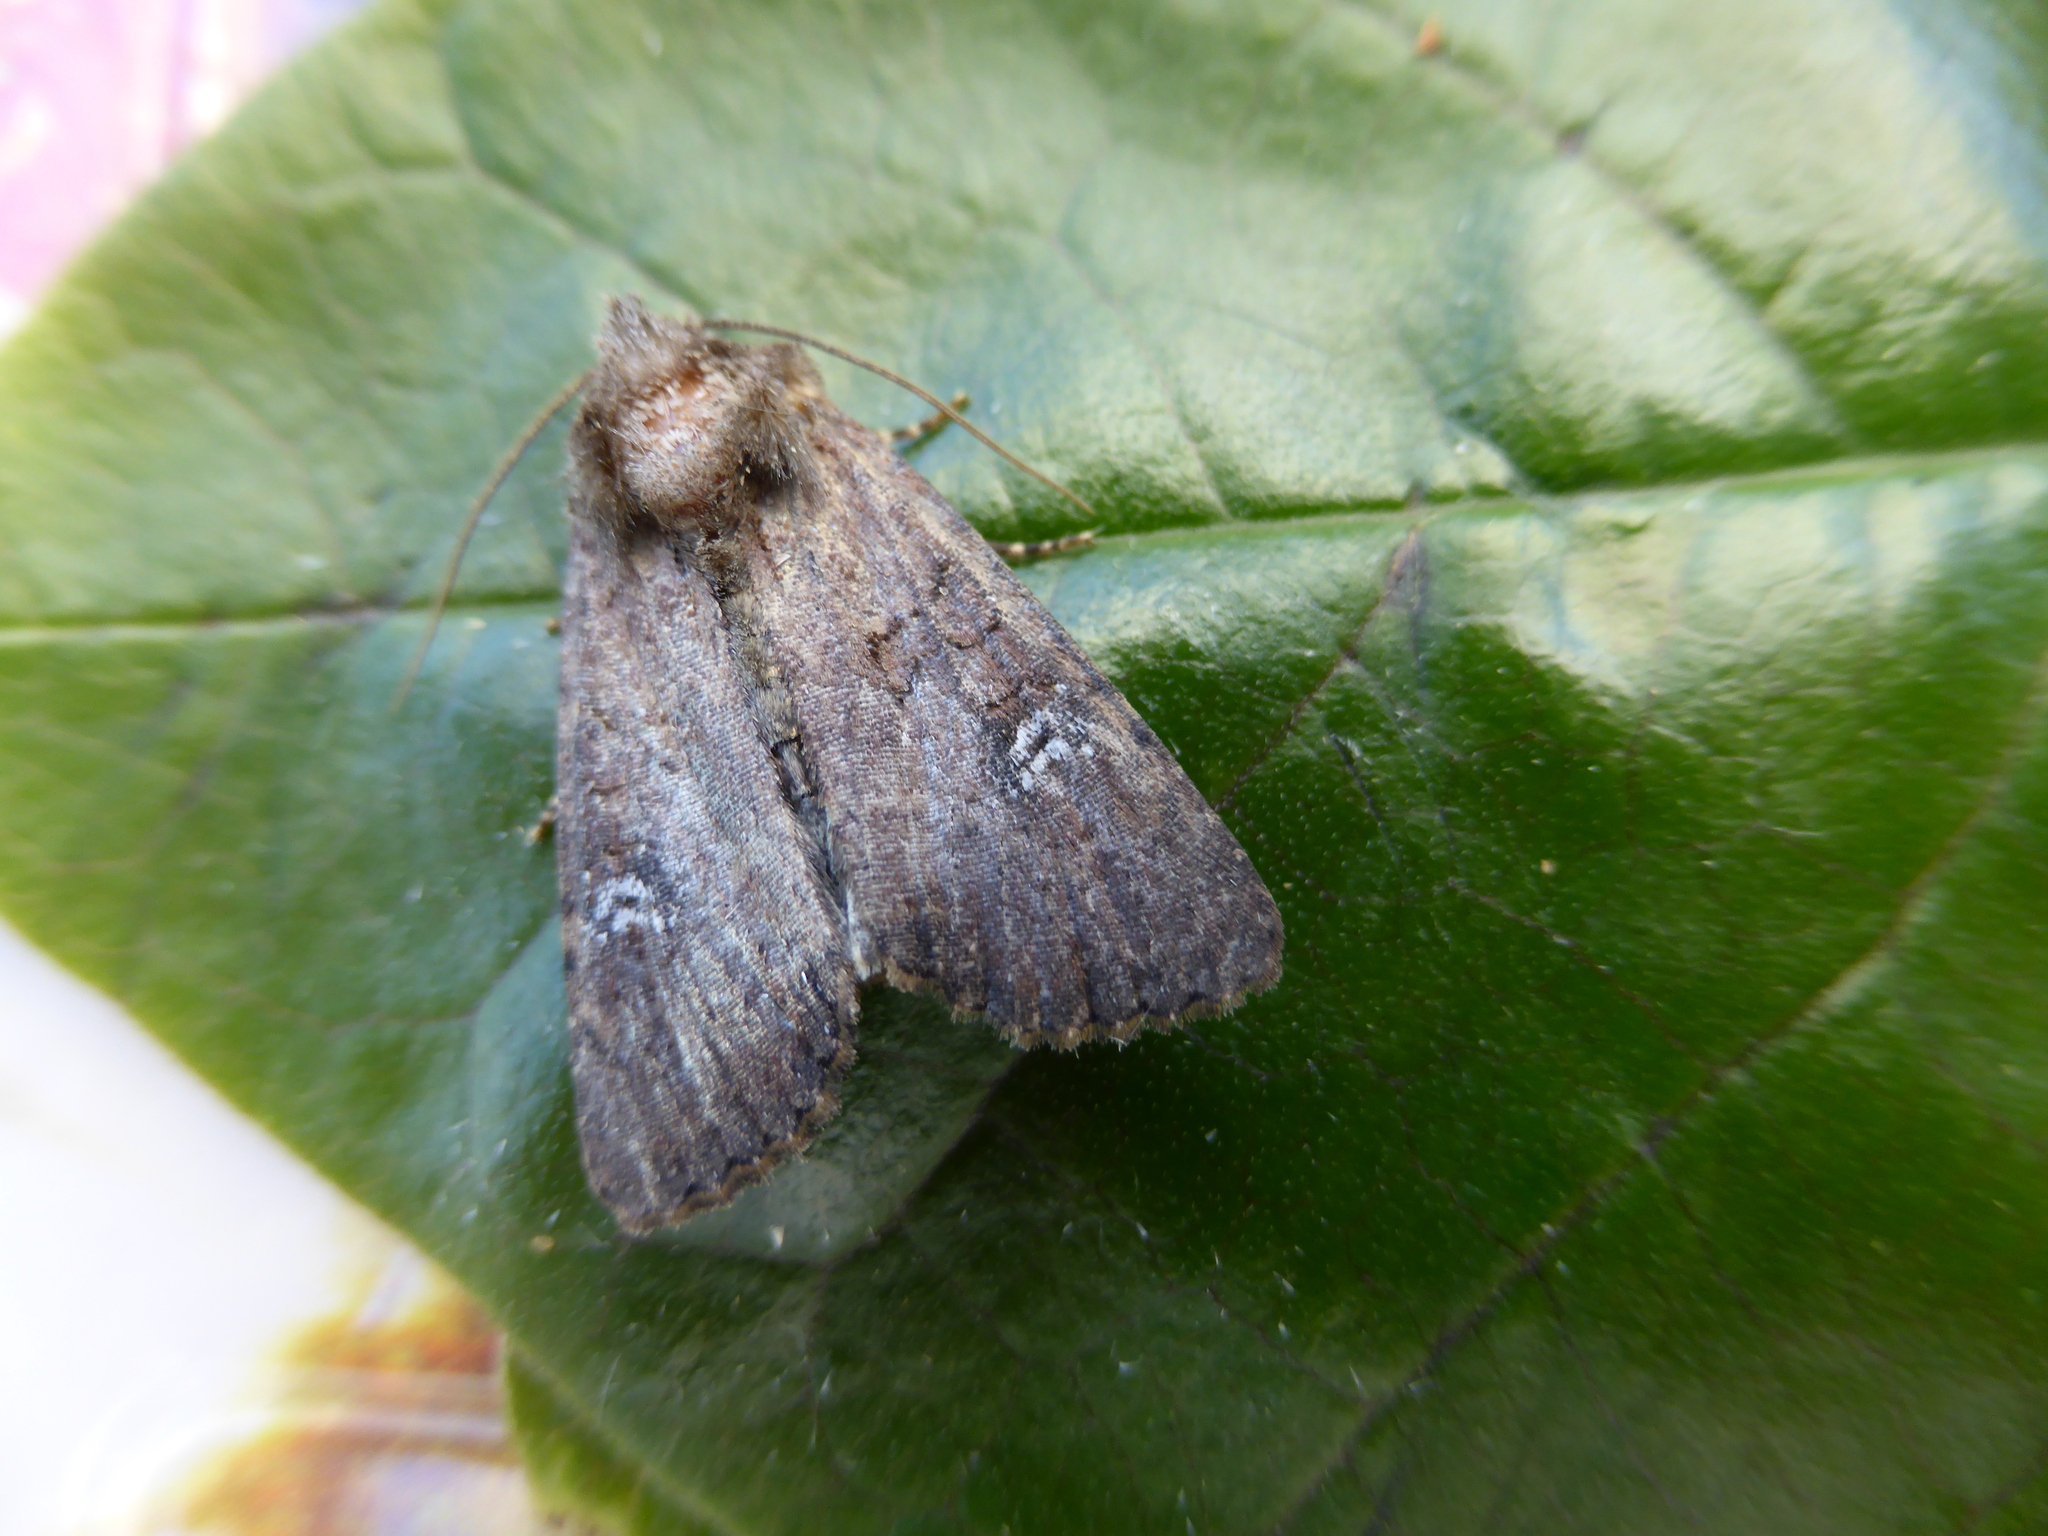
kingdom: Animalia
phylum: Arthropoda
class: Insecta
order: Lepidoptera
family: Noctuidae
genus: Mesapamea
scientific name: Mesapamea
